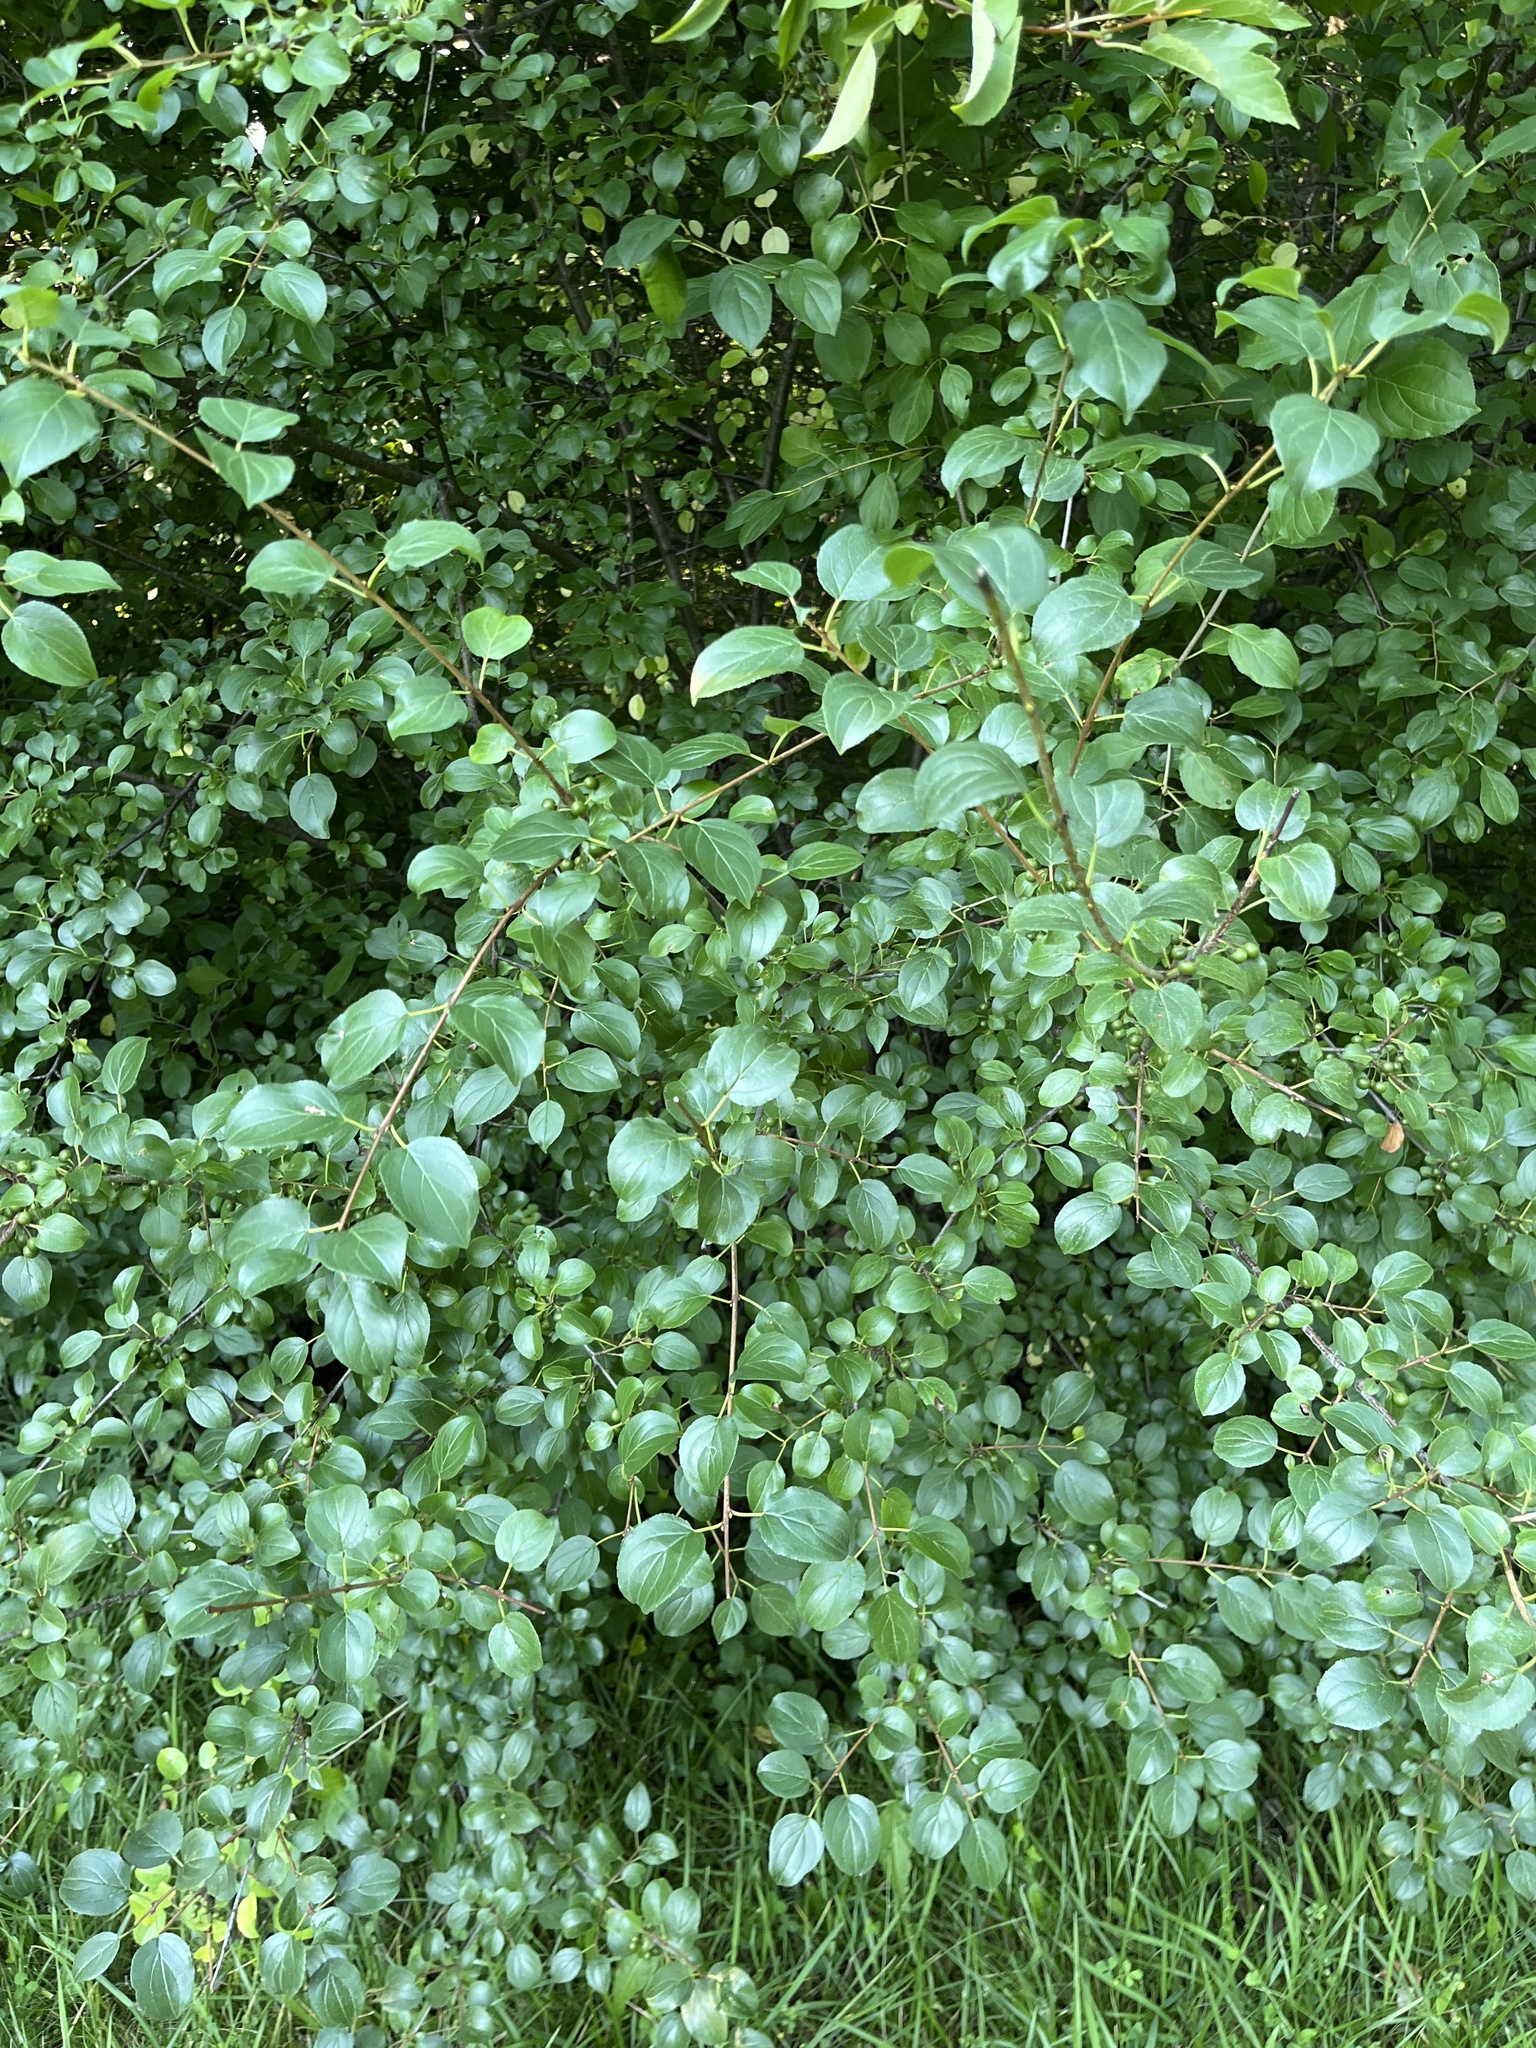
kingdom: Plantae
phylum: Tracheophyta
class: Magnoliopsida
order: Rosales
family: Rhamnaceae
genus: Rhamnus
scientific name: Rhamnus cathartica
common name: Common buckthorn
